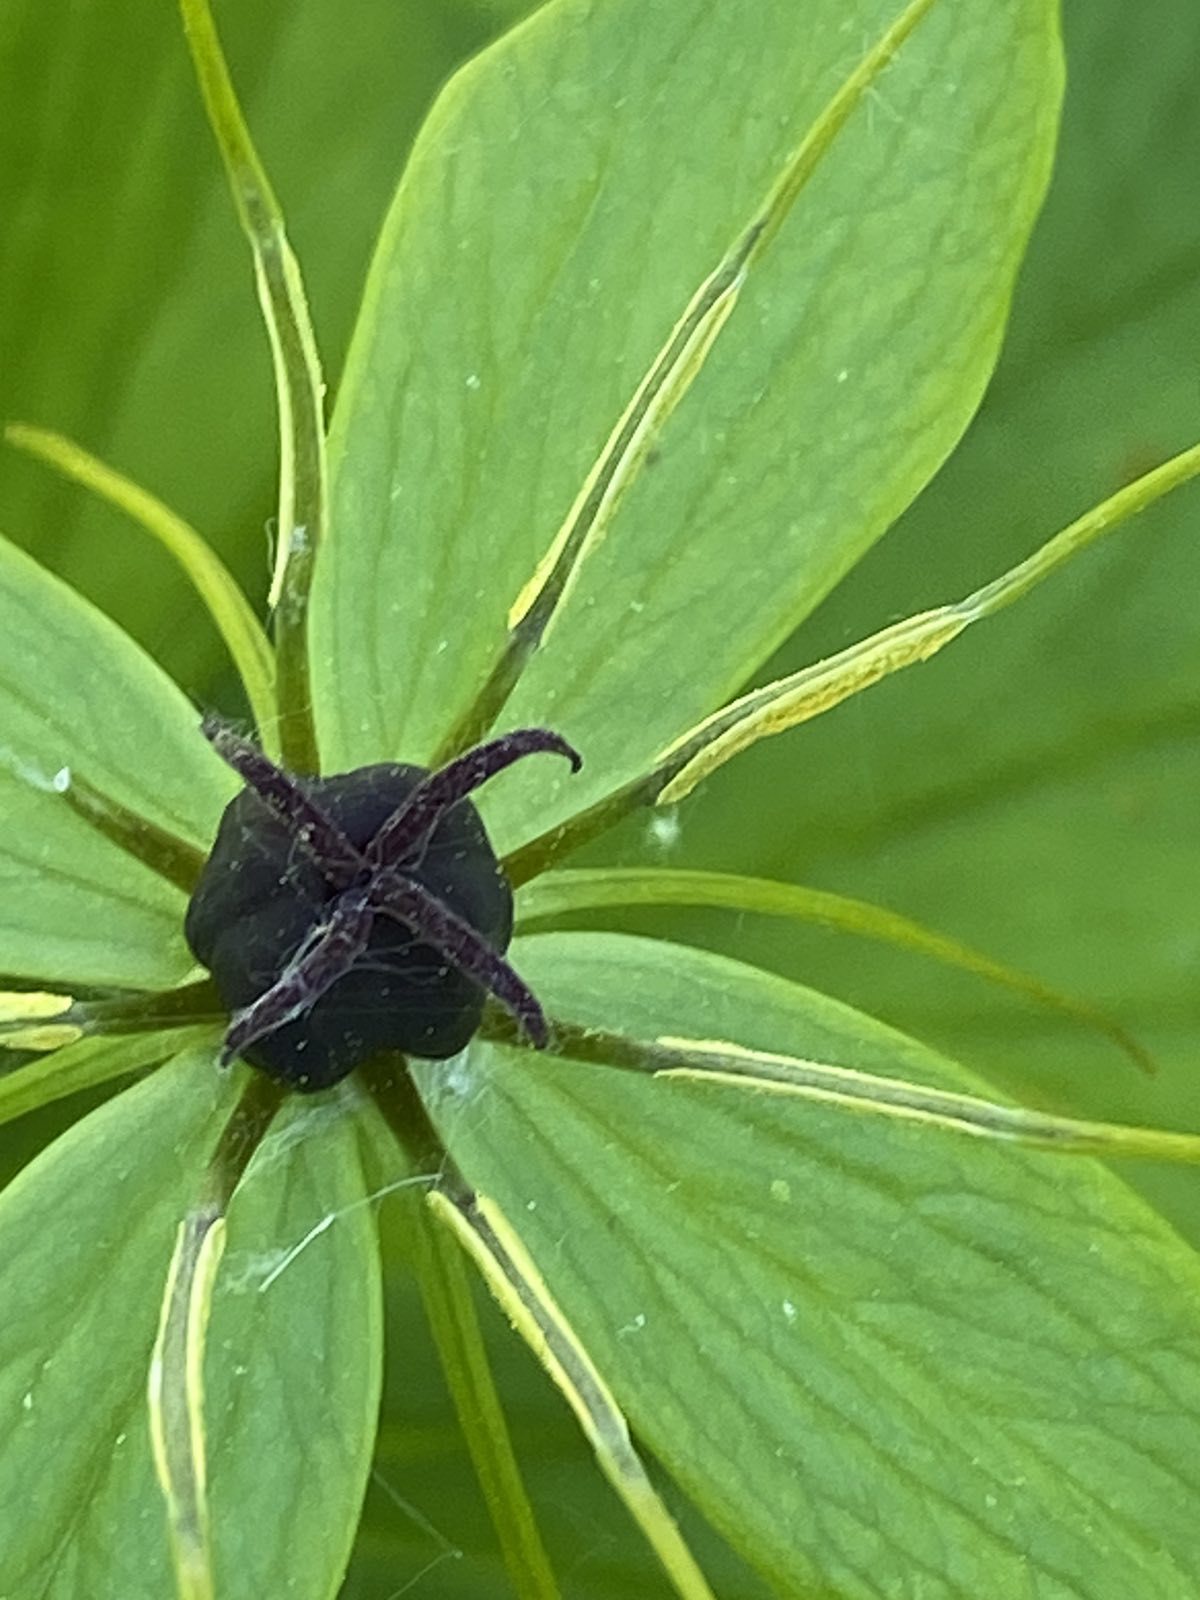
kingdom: Plantae
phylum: Tracheophyta
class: Liliopsida
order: Liliales
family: Melanthiaceae
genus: Paris
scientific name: Paris quadrifolia
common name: Herb-paris
